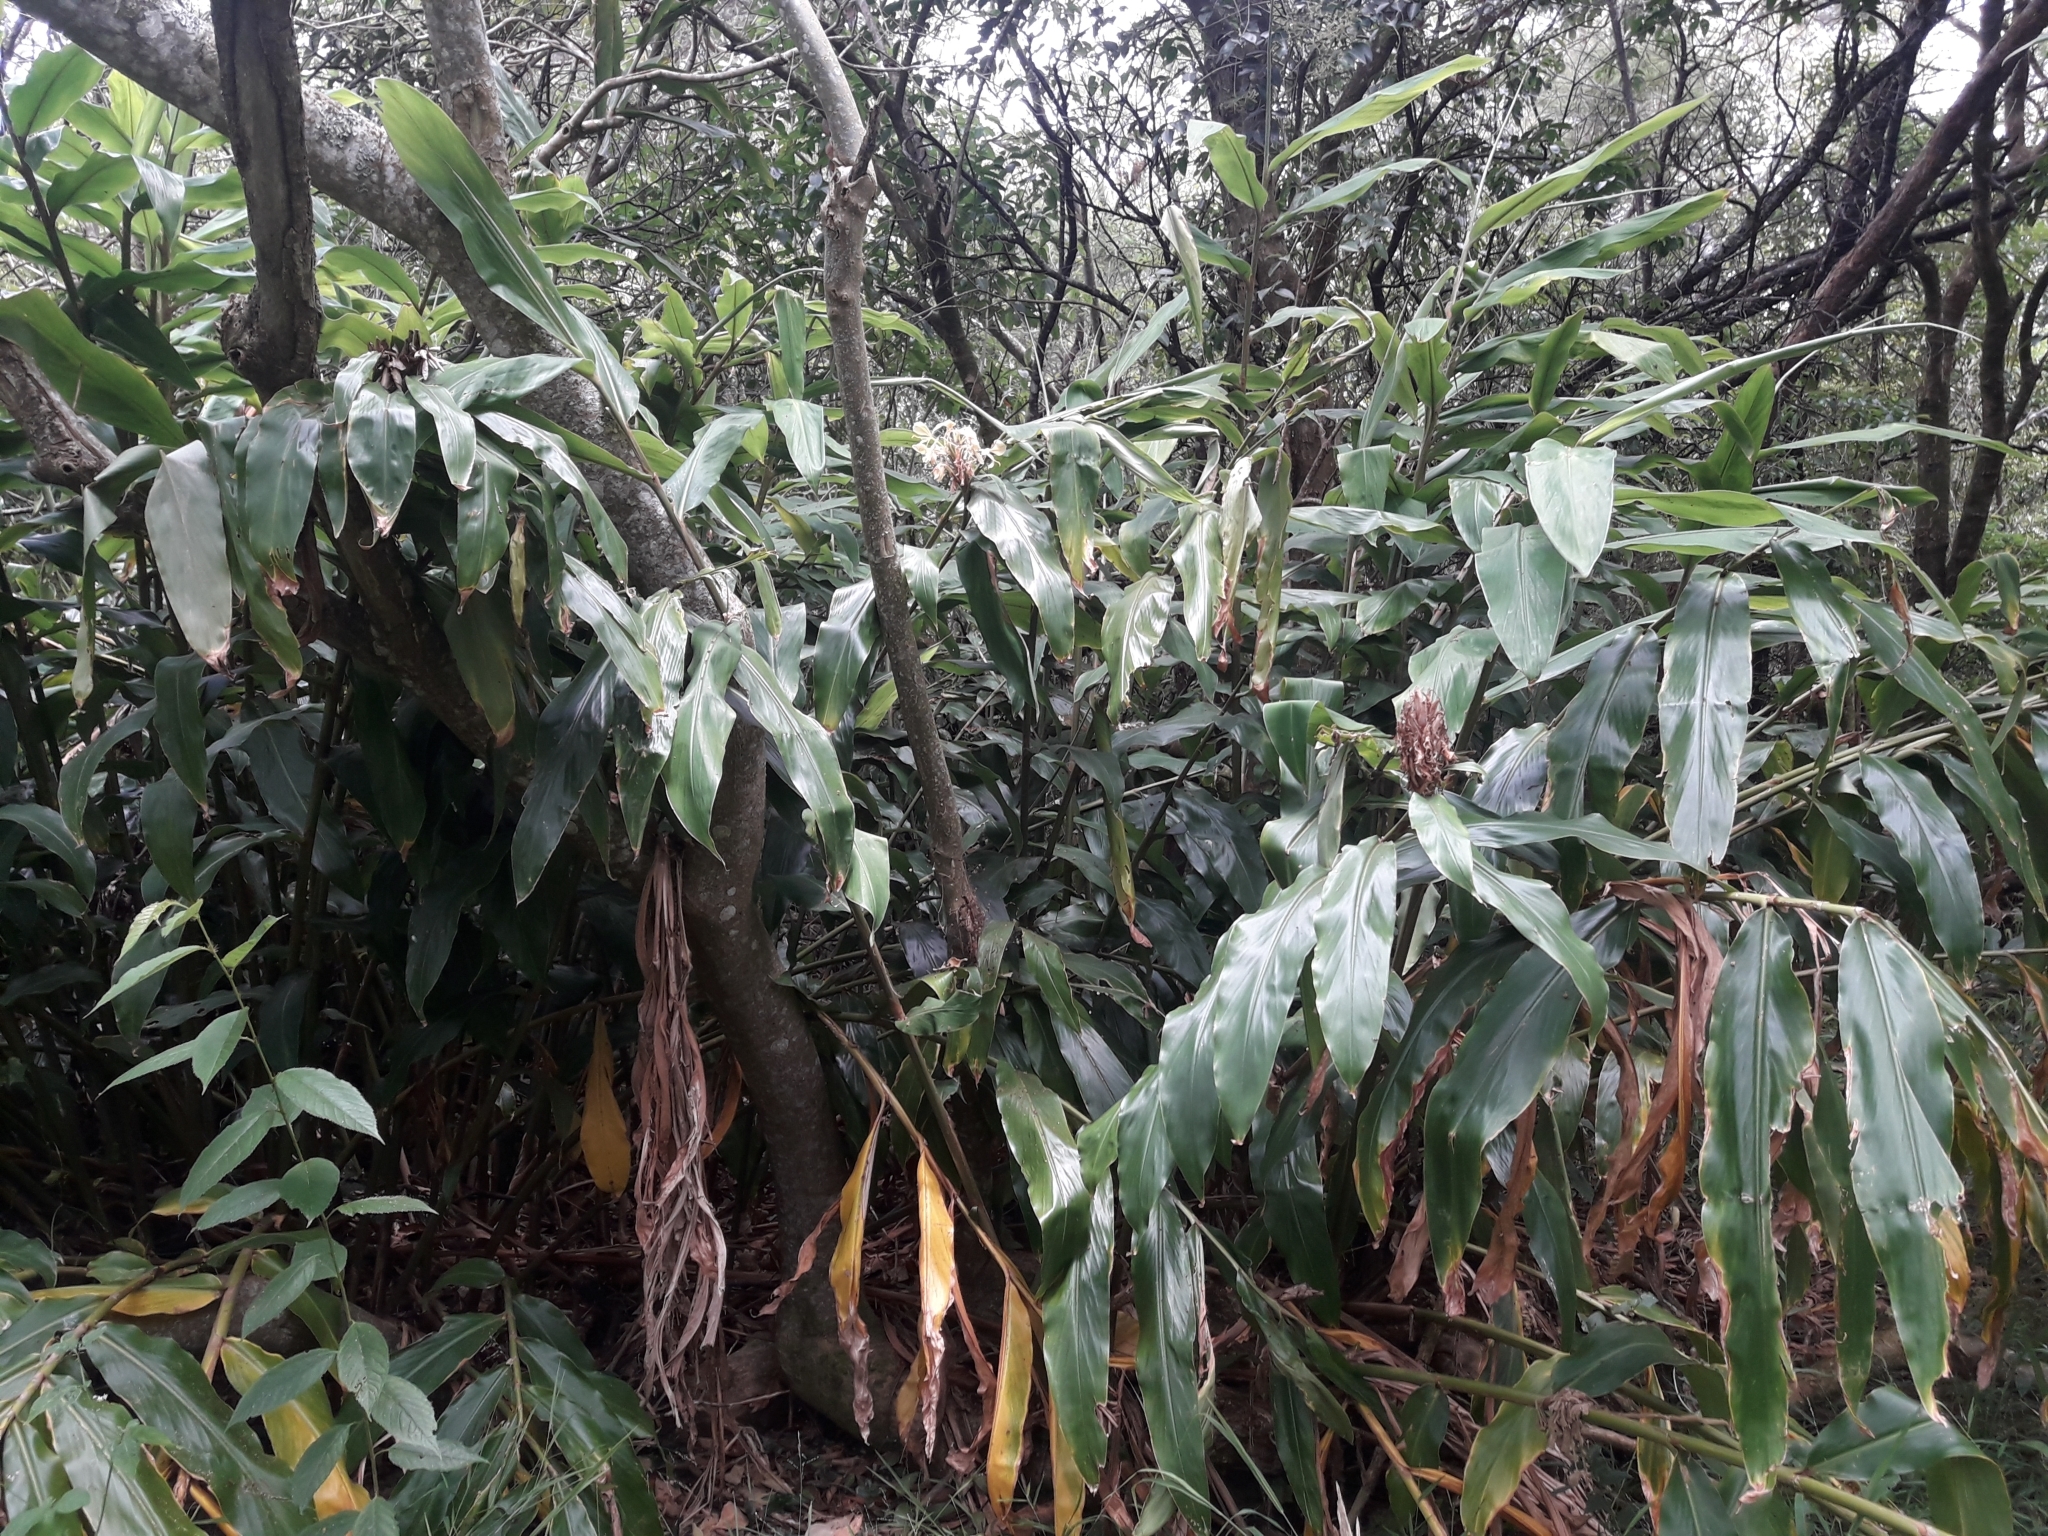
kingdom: Plantae
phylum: Tracheophyta
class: Liliopsida
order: Zingiberales
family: Zingiberaceae
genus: Hedychium
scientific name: Hedychium gardnerianum
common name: Himalayan ginger
